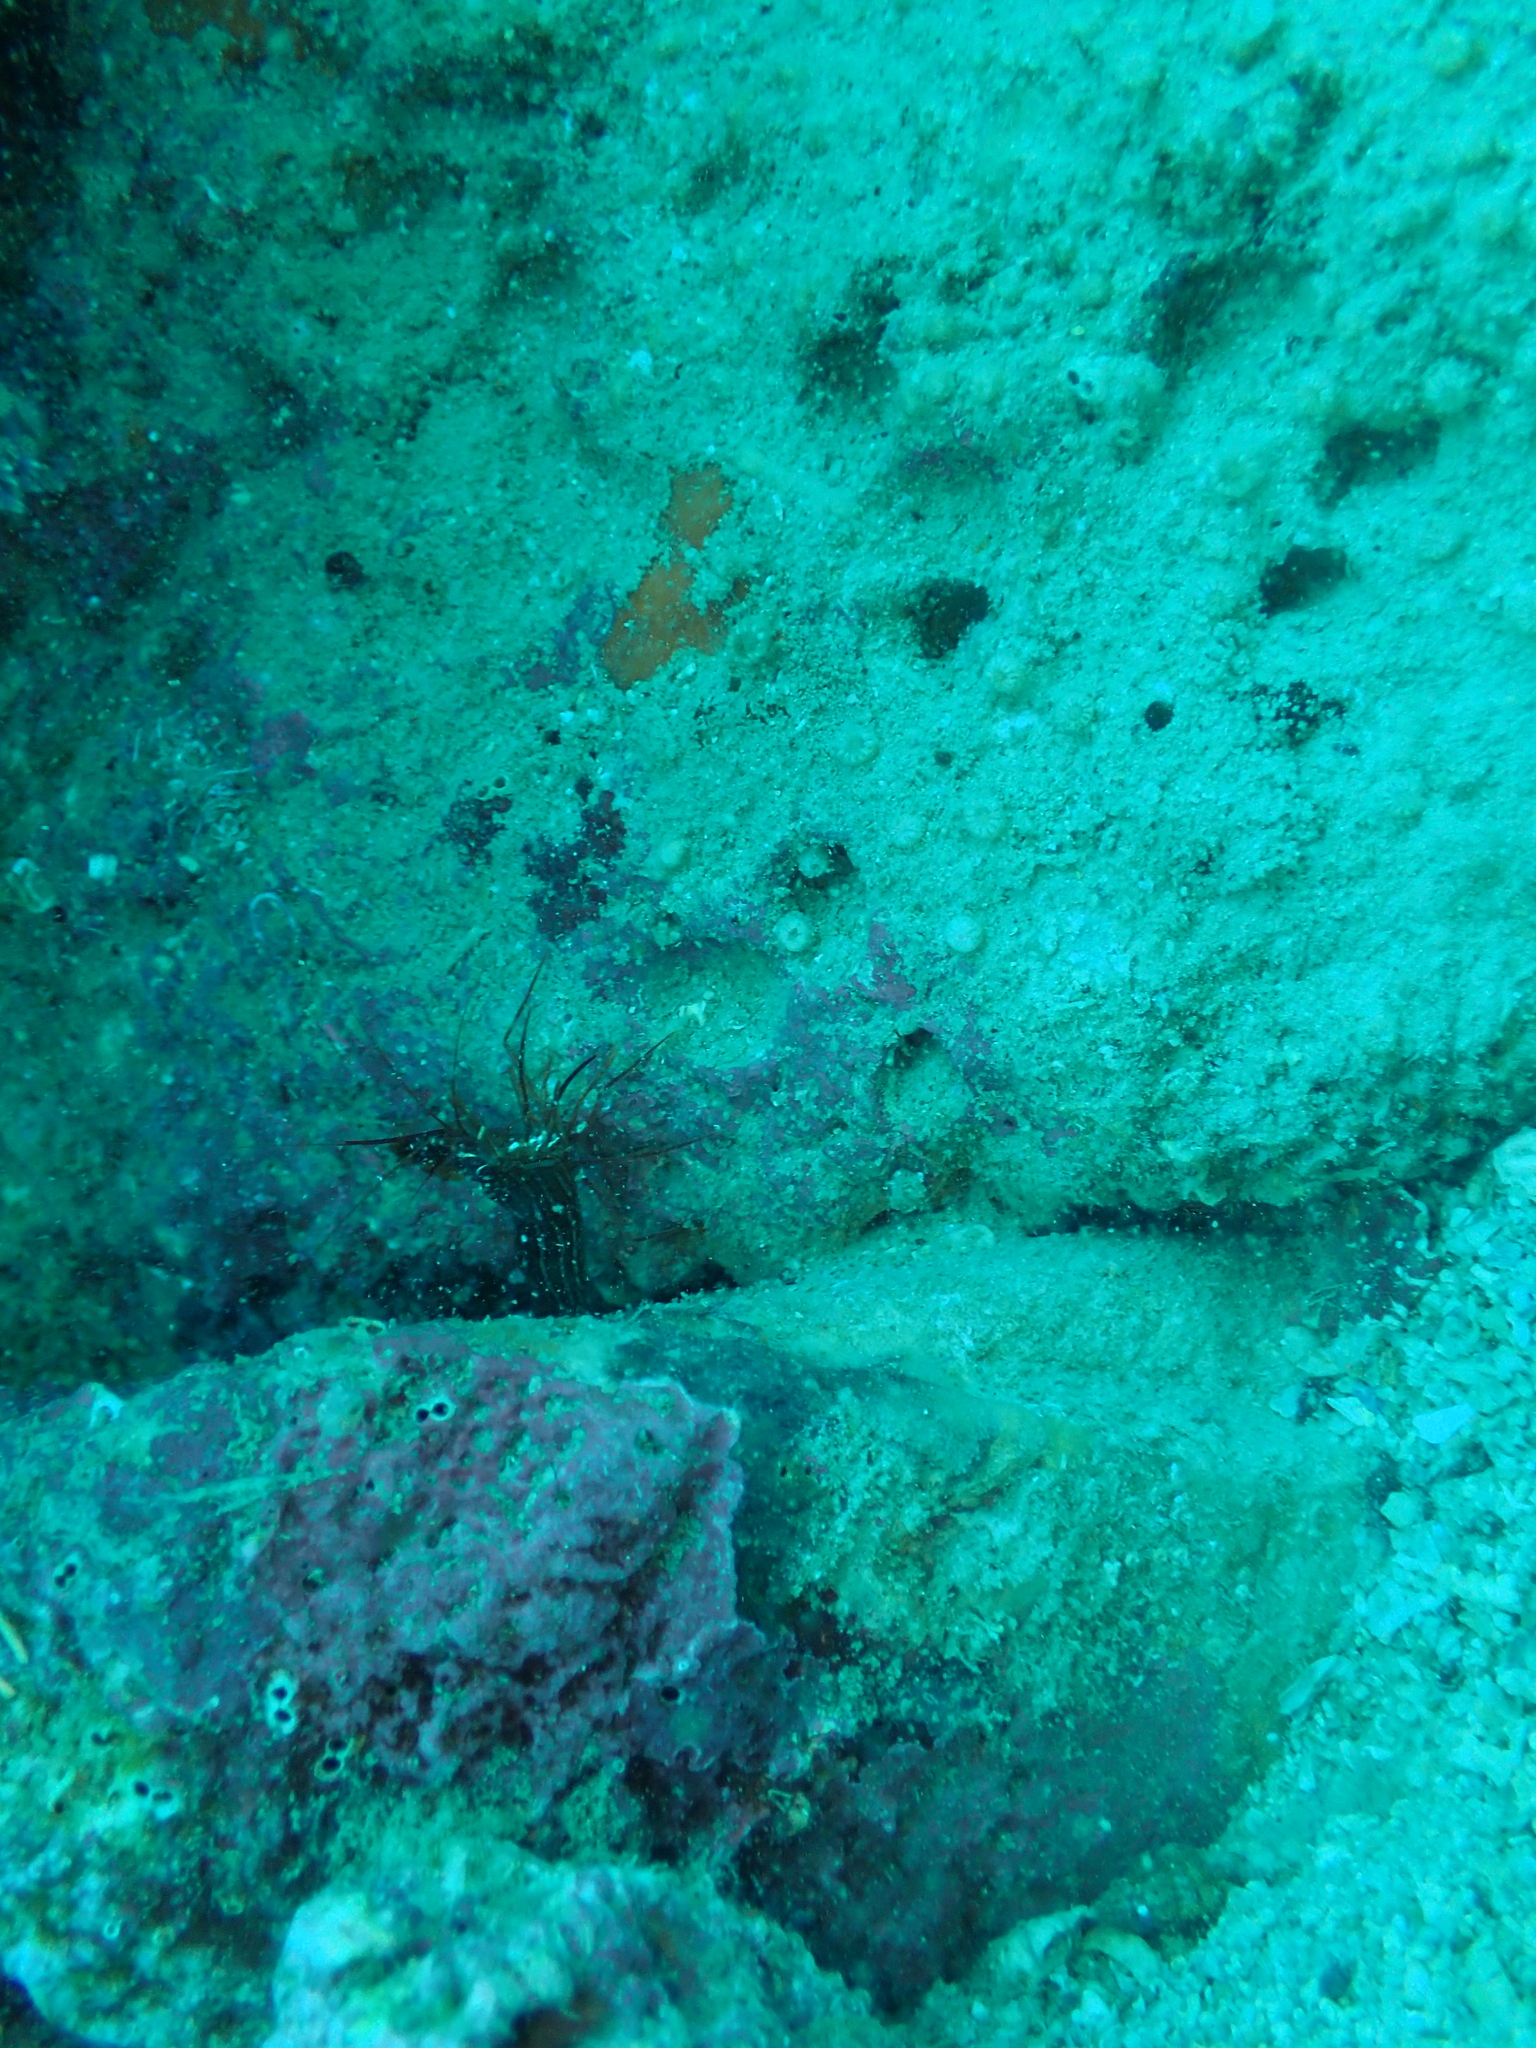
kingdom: Animalia
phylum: Arthropoda
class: Malacostraca
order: Decapoda
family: Lysmatidae
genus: Lysmata
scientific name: Lysmata seticaudata
